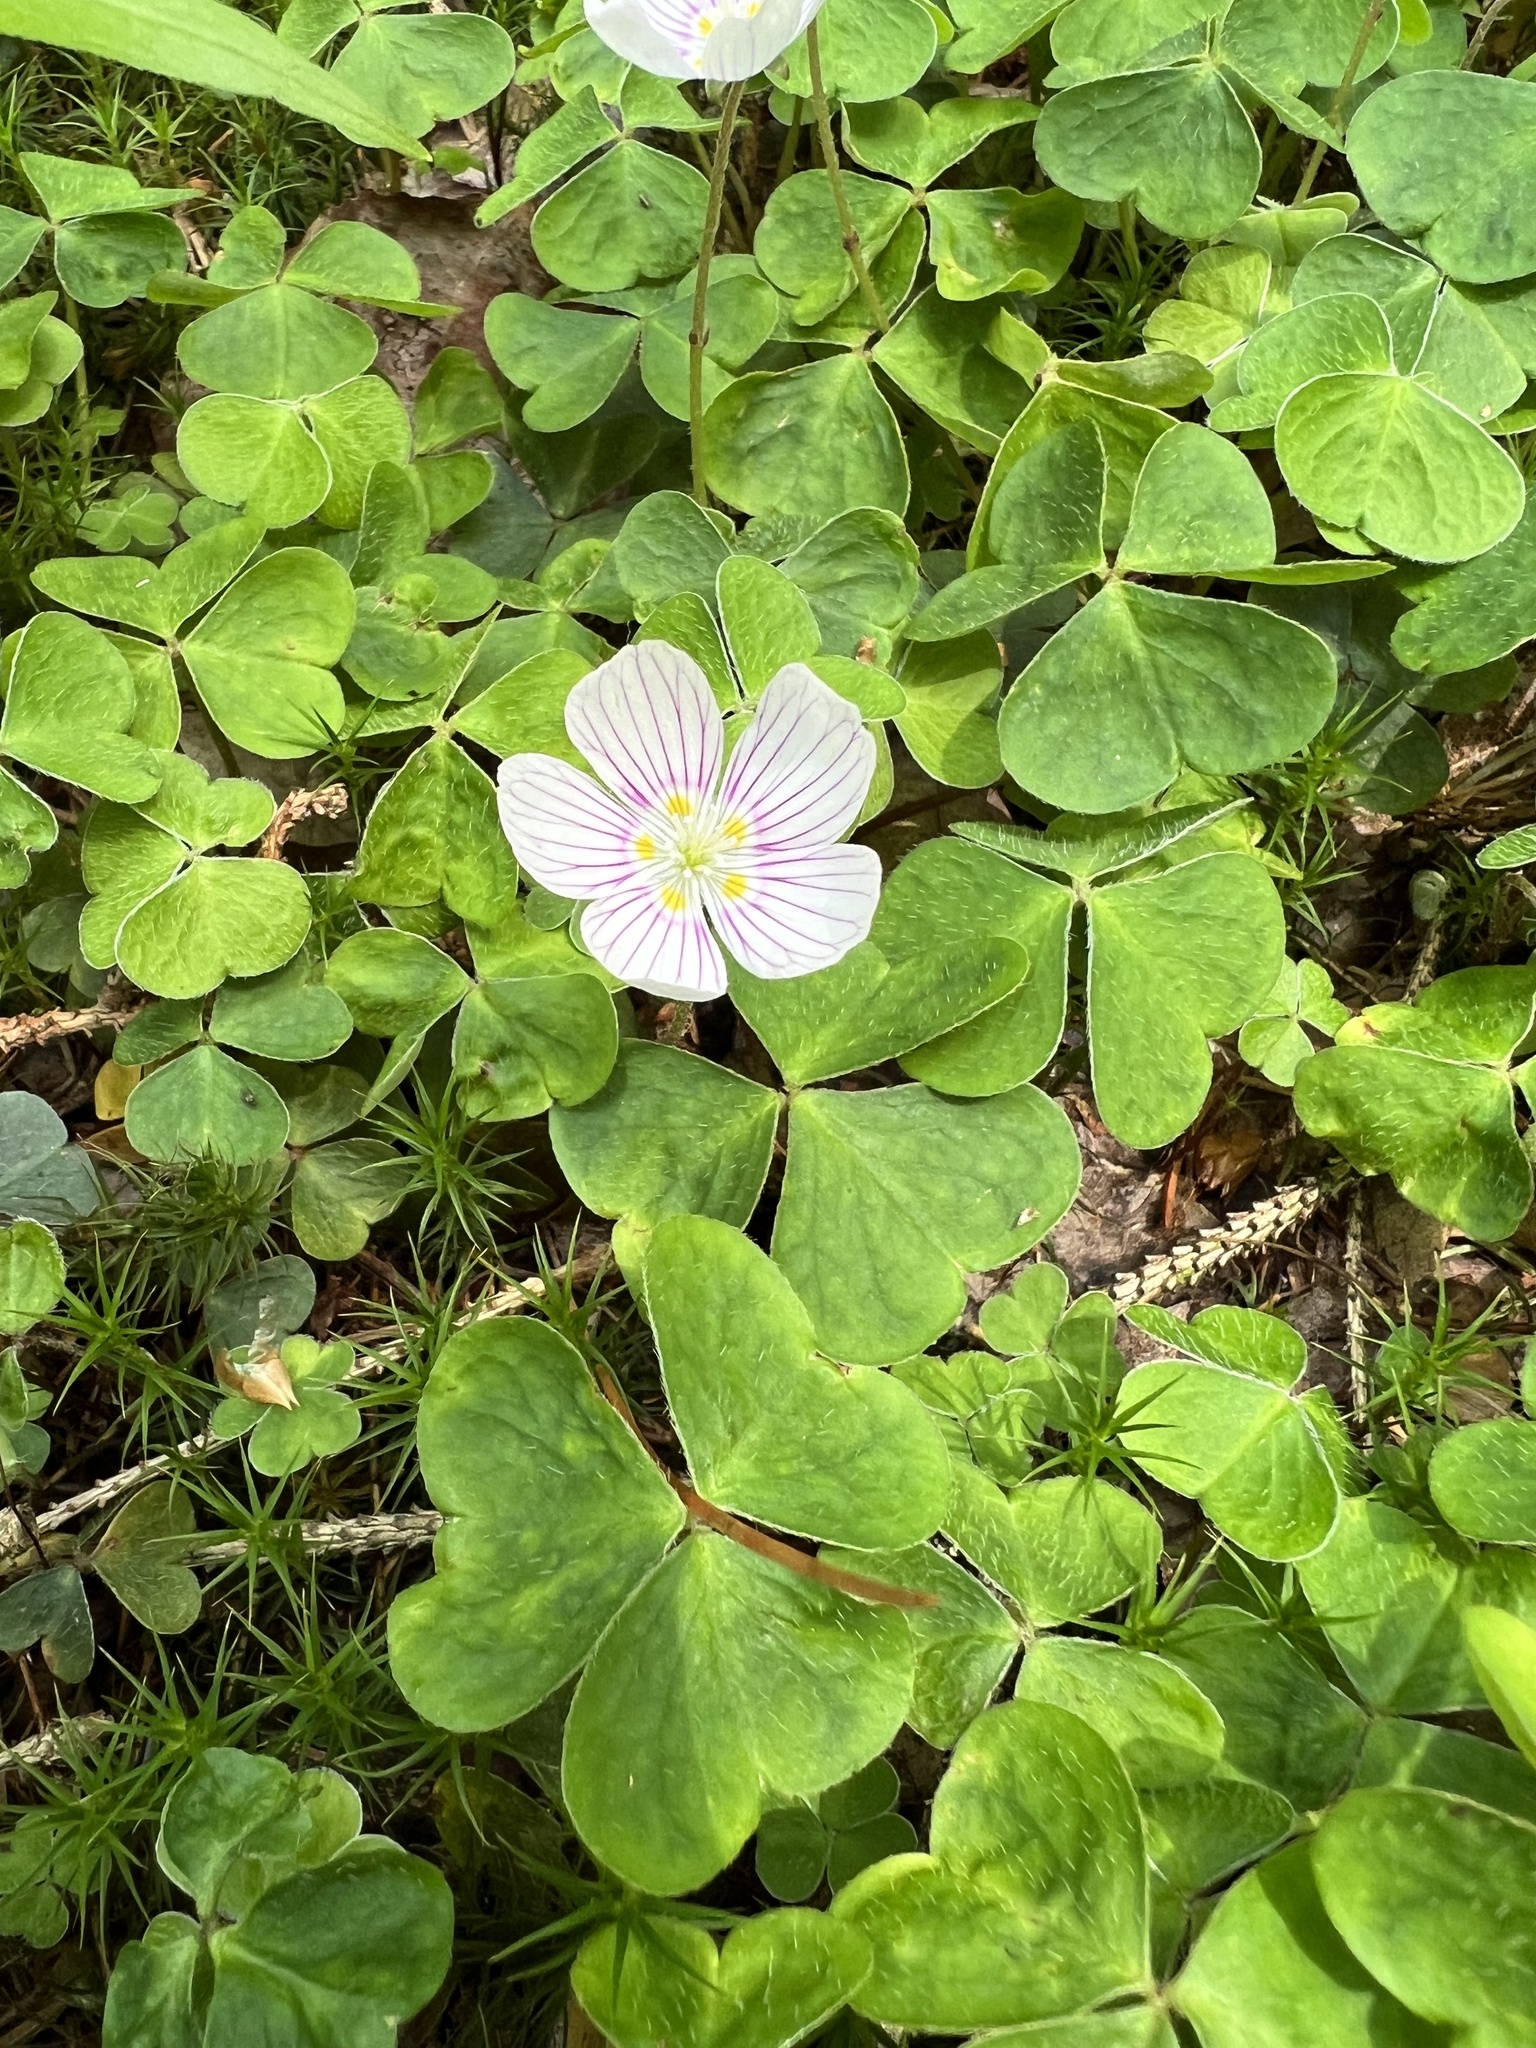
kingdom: Plantae
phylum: Tracheophyta
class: Magnoliopsida
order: Oxalidales
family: Oxalidaceae
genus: Oxalis
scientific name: Oxalis montana
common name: American wood-sorrel
